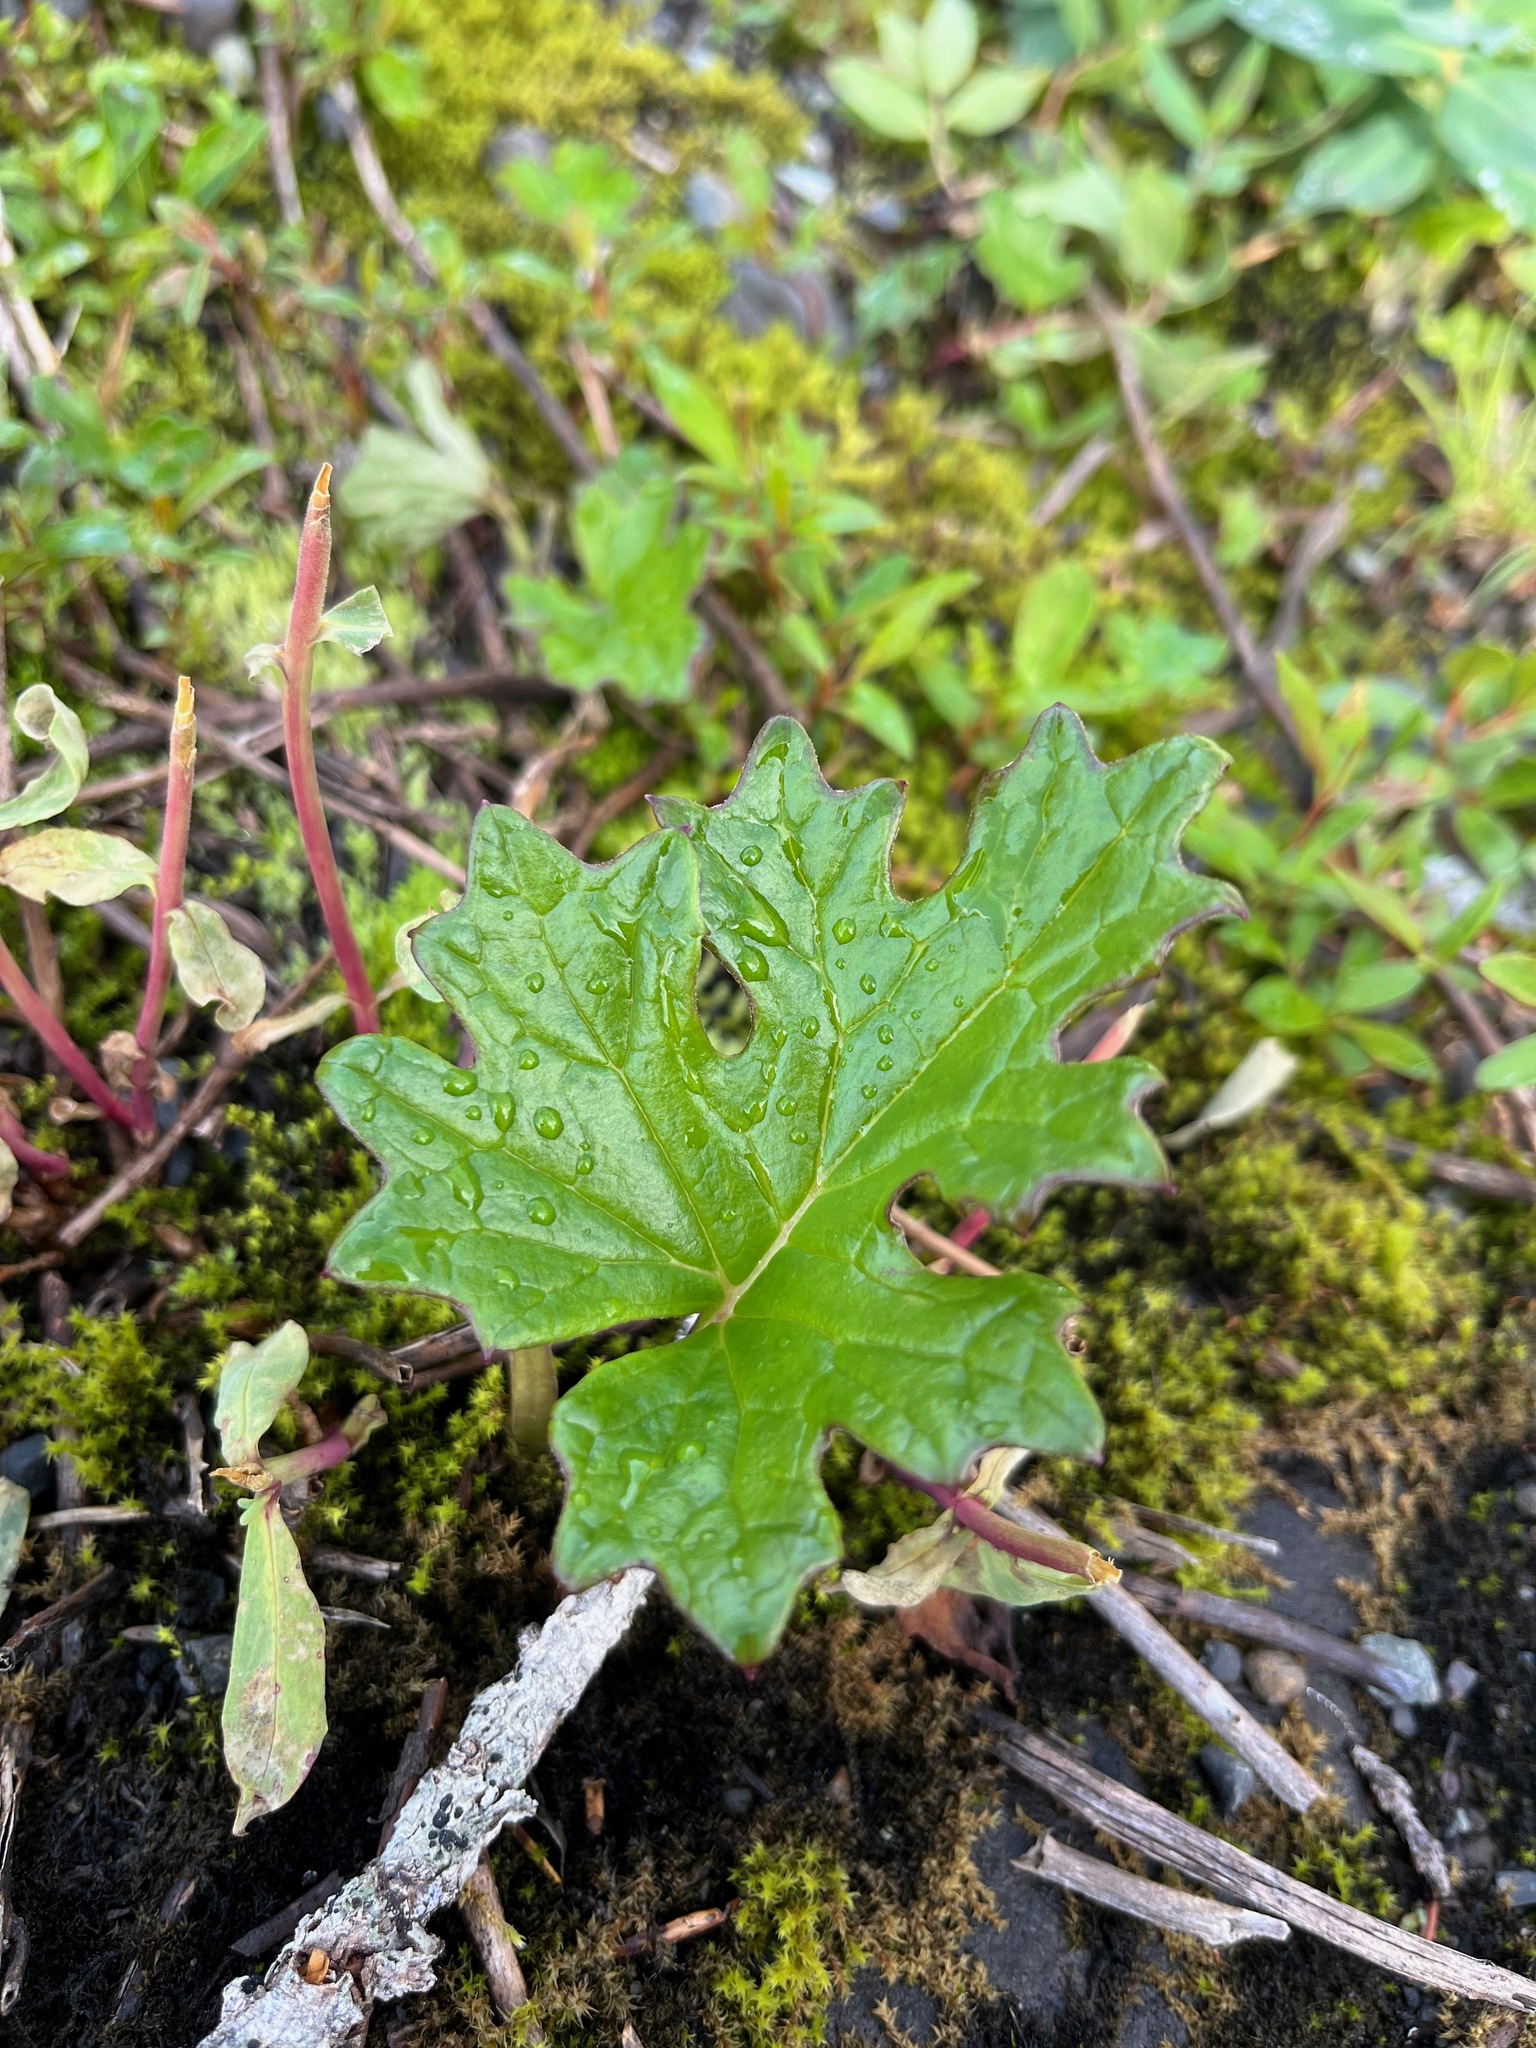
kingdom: Plantae
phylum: Tracheophyta
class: Magnoliopsida
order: Asterales
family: Asteraceae
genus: Petasites
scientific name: Petasites frigidus
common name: Arctic butterbur
